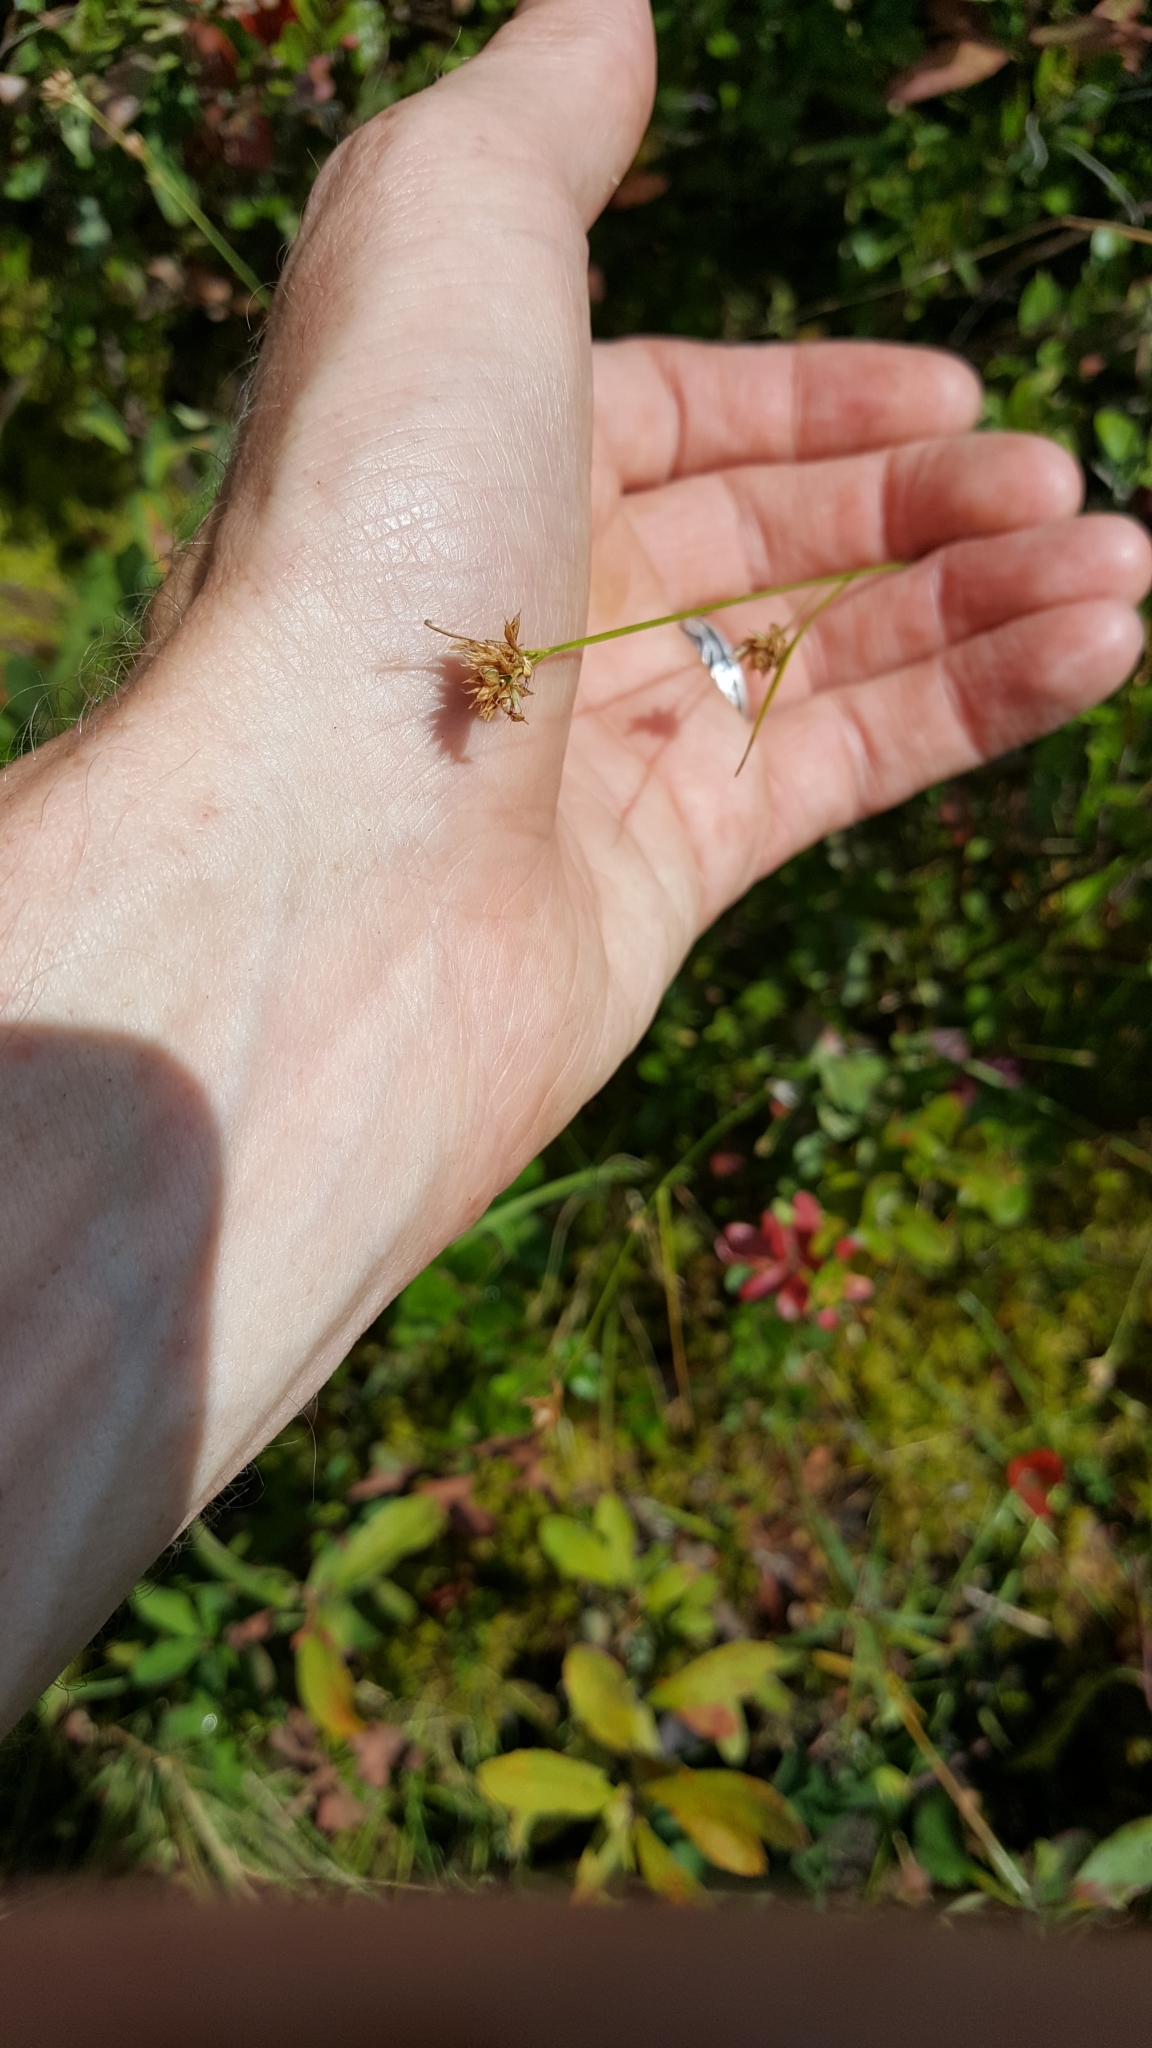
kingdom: Plantae
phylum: Tracheophyta
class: Liliopsida
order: Poales
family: Cyperaceae
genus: Rhynchospora
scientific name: Rhynchospora alba
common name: White beak-sedge
